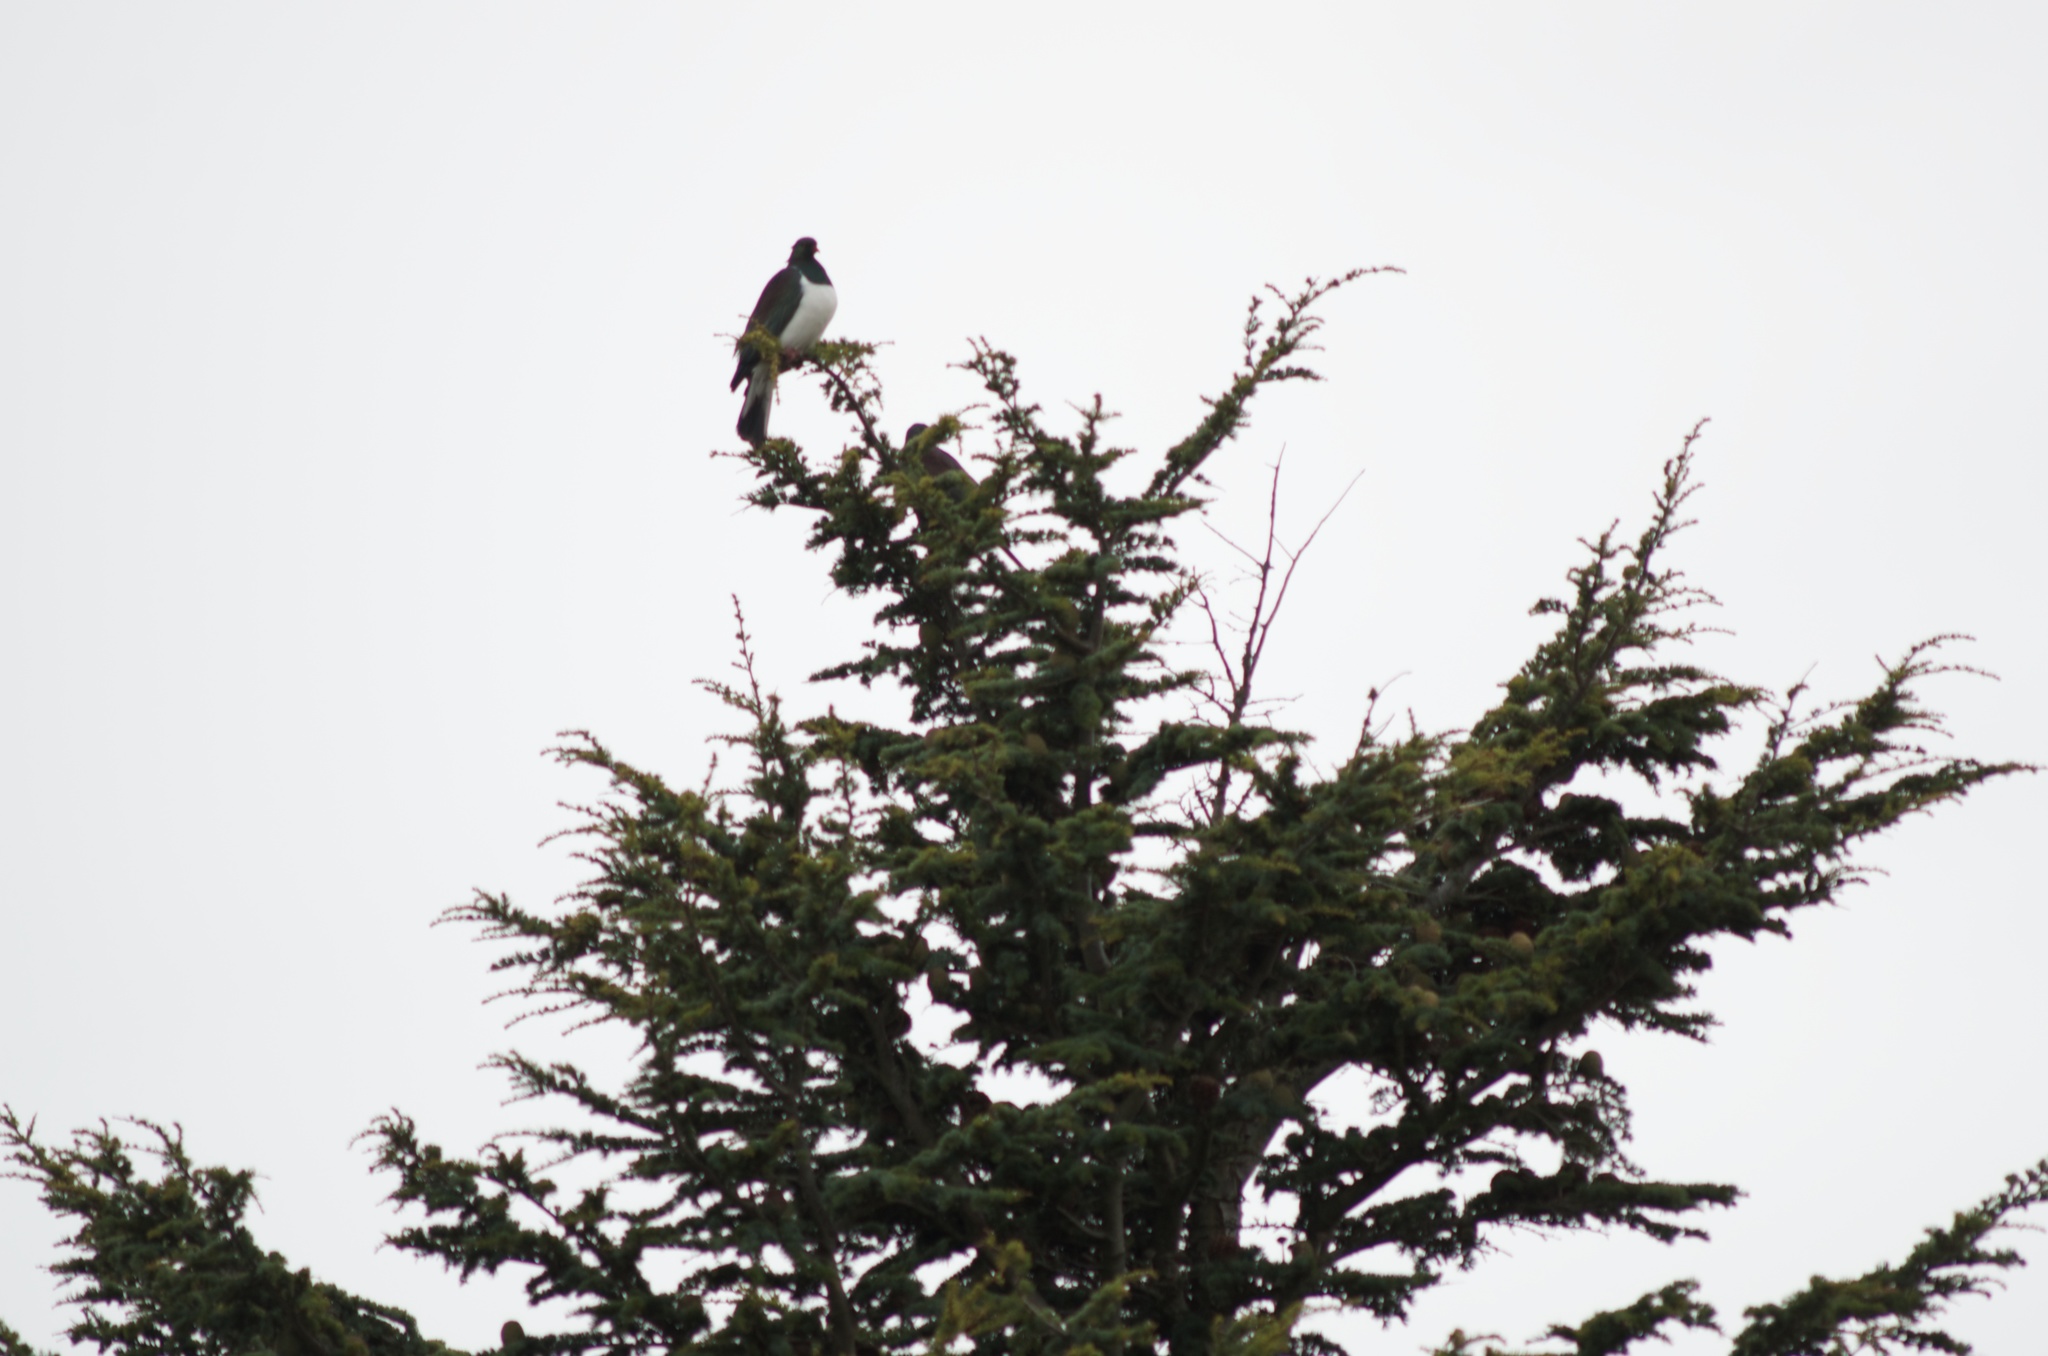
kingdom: Animalia
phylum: Chordata
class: Aves
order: Columbiformes
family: Columbidae
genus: Hemiphaga
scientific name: Hemiphaga novaeseelandiae
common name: New zealand pigeon
